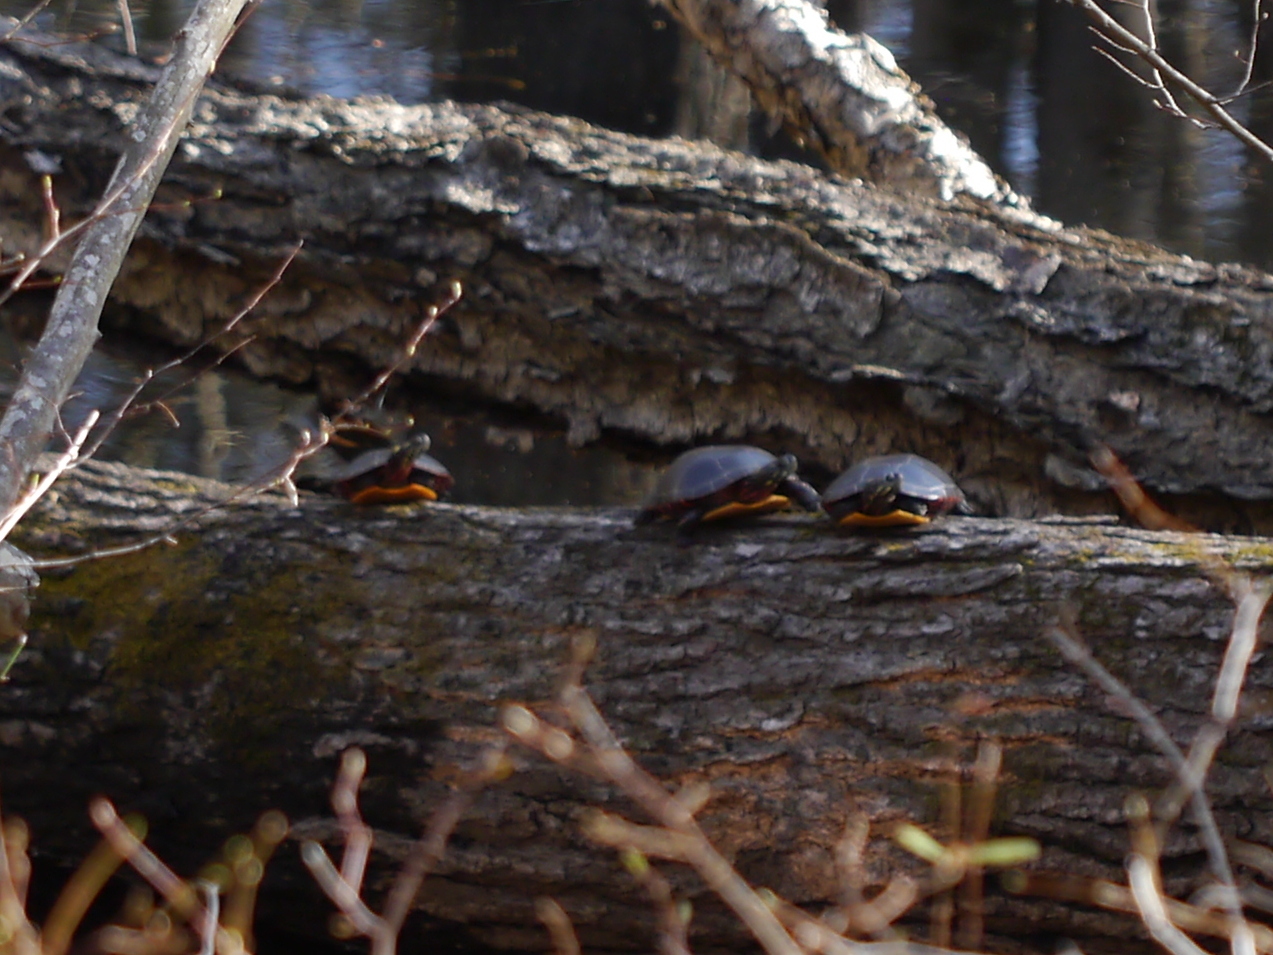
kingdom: Animalia
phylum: Chordata
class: Testudines
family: Emydidae
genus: Chrysemys
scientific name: Chrysemys picta
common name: Painted turtle
